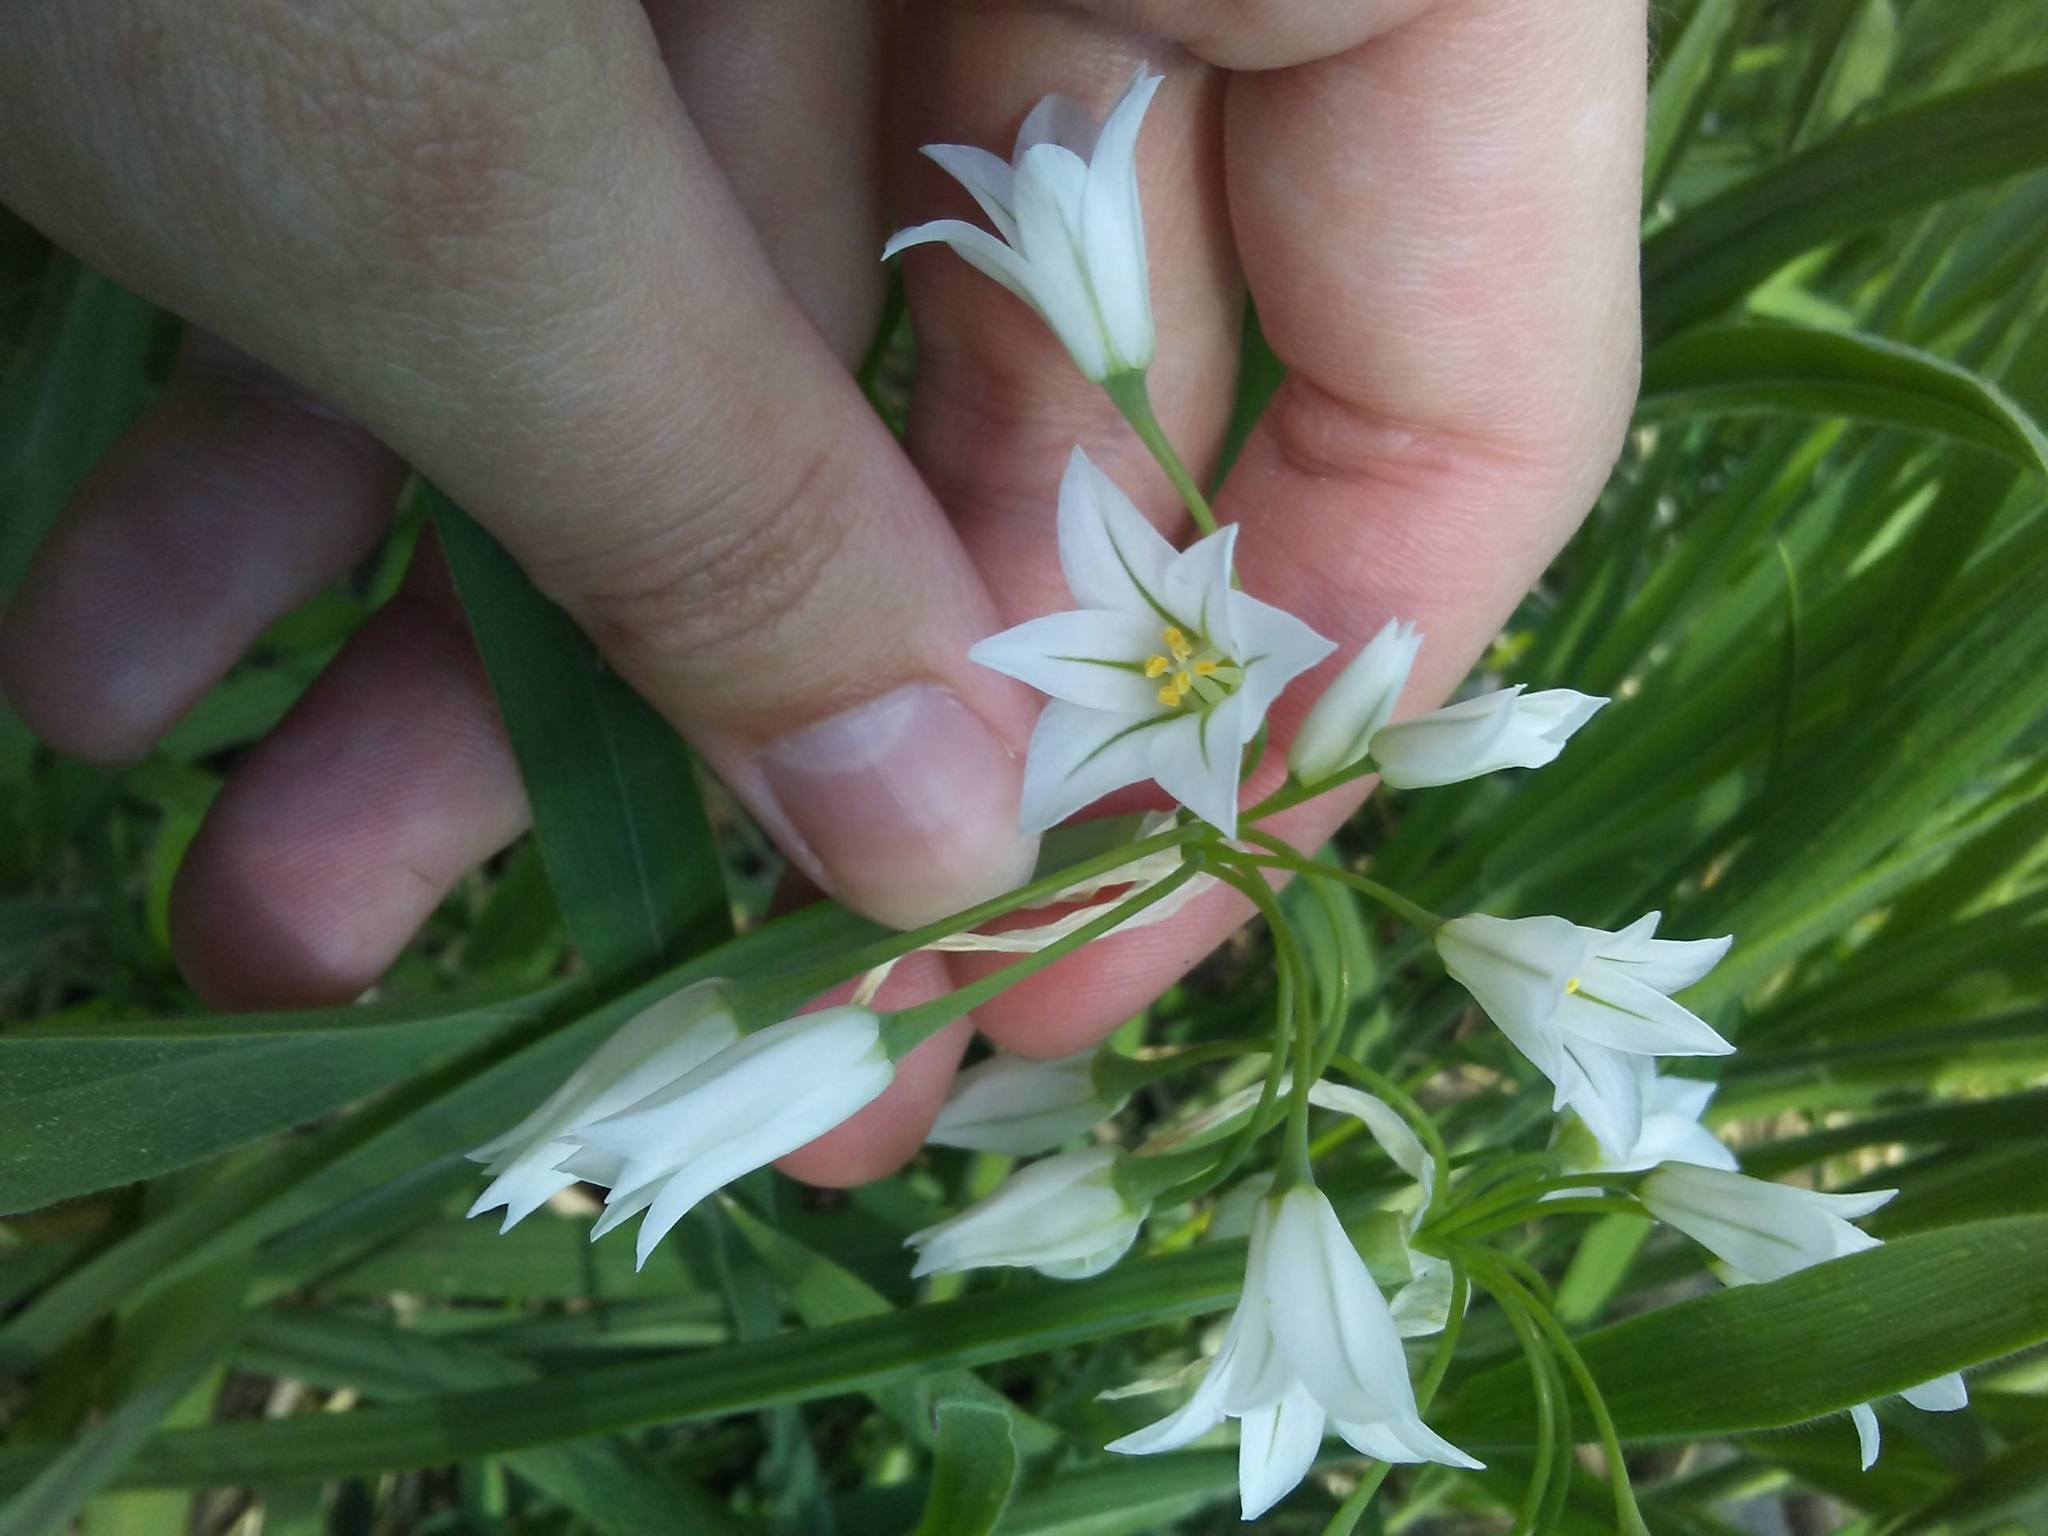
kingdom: Plantae
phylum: Tracheophyta
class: Liliopsida
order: Asparagales
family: Amaryllidaceae
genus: Allium
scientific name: Allium triquetrum
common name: Three-cornered garlic
